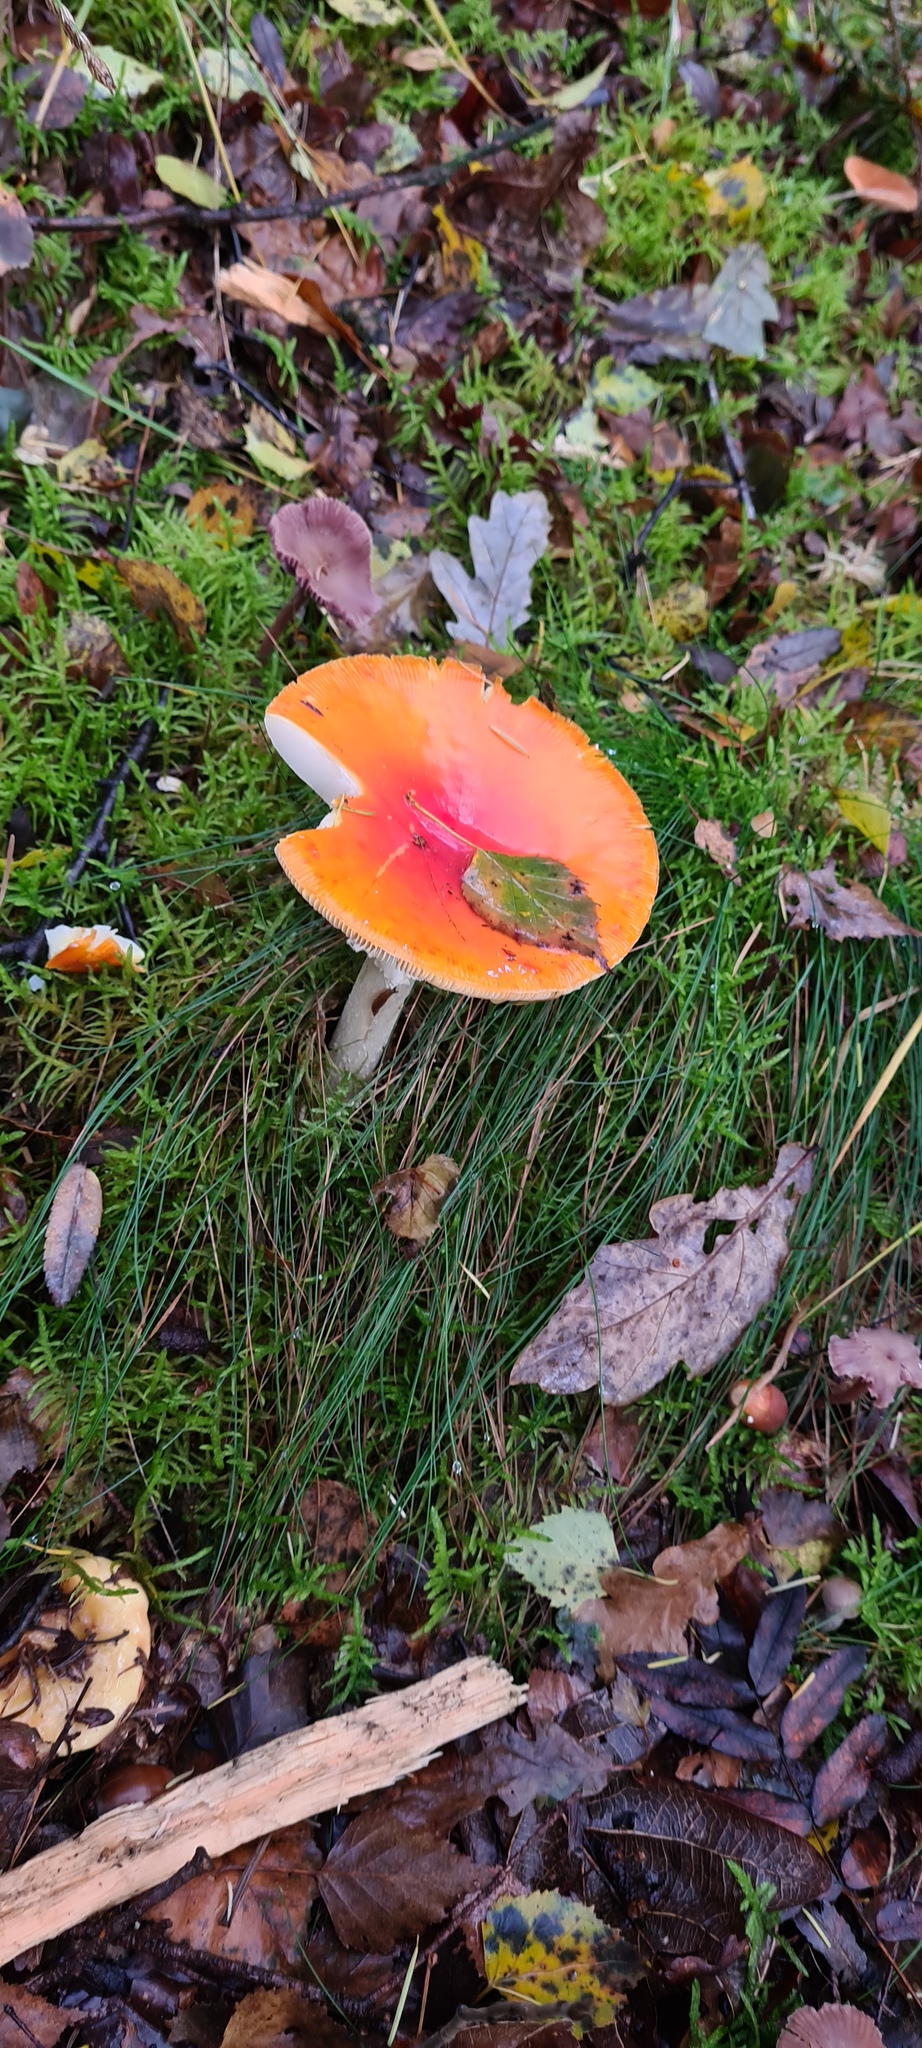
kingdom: Fungi
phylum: Basidiomycota
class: Agaricomycetes
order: Agaricales
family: Amanitaceae
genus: Amanita
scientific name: Amanita muscaria
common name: Fly agaric
